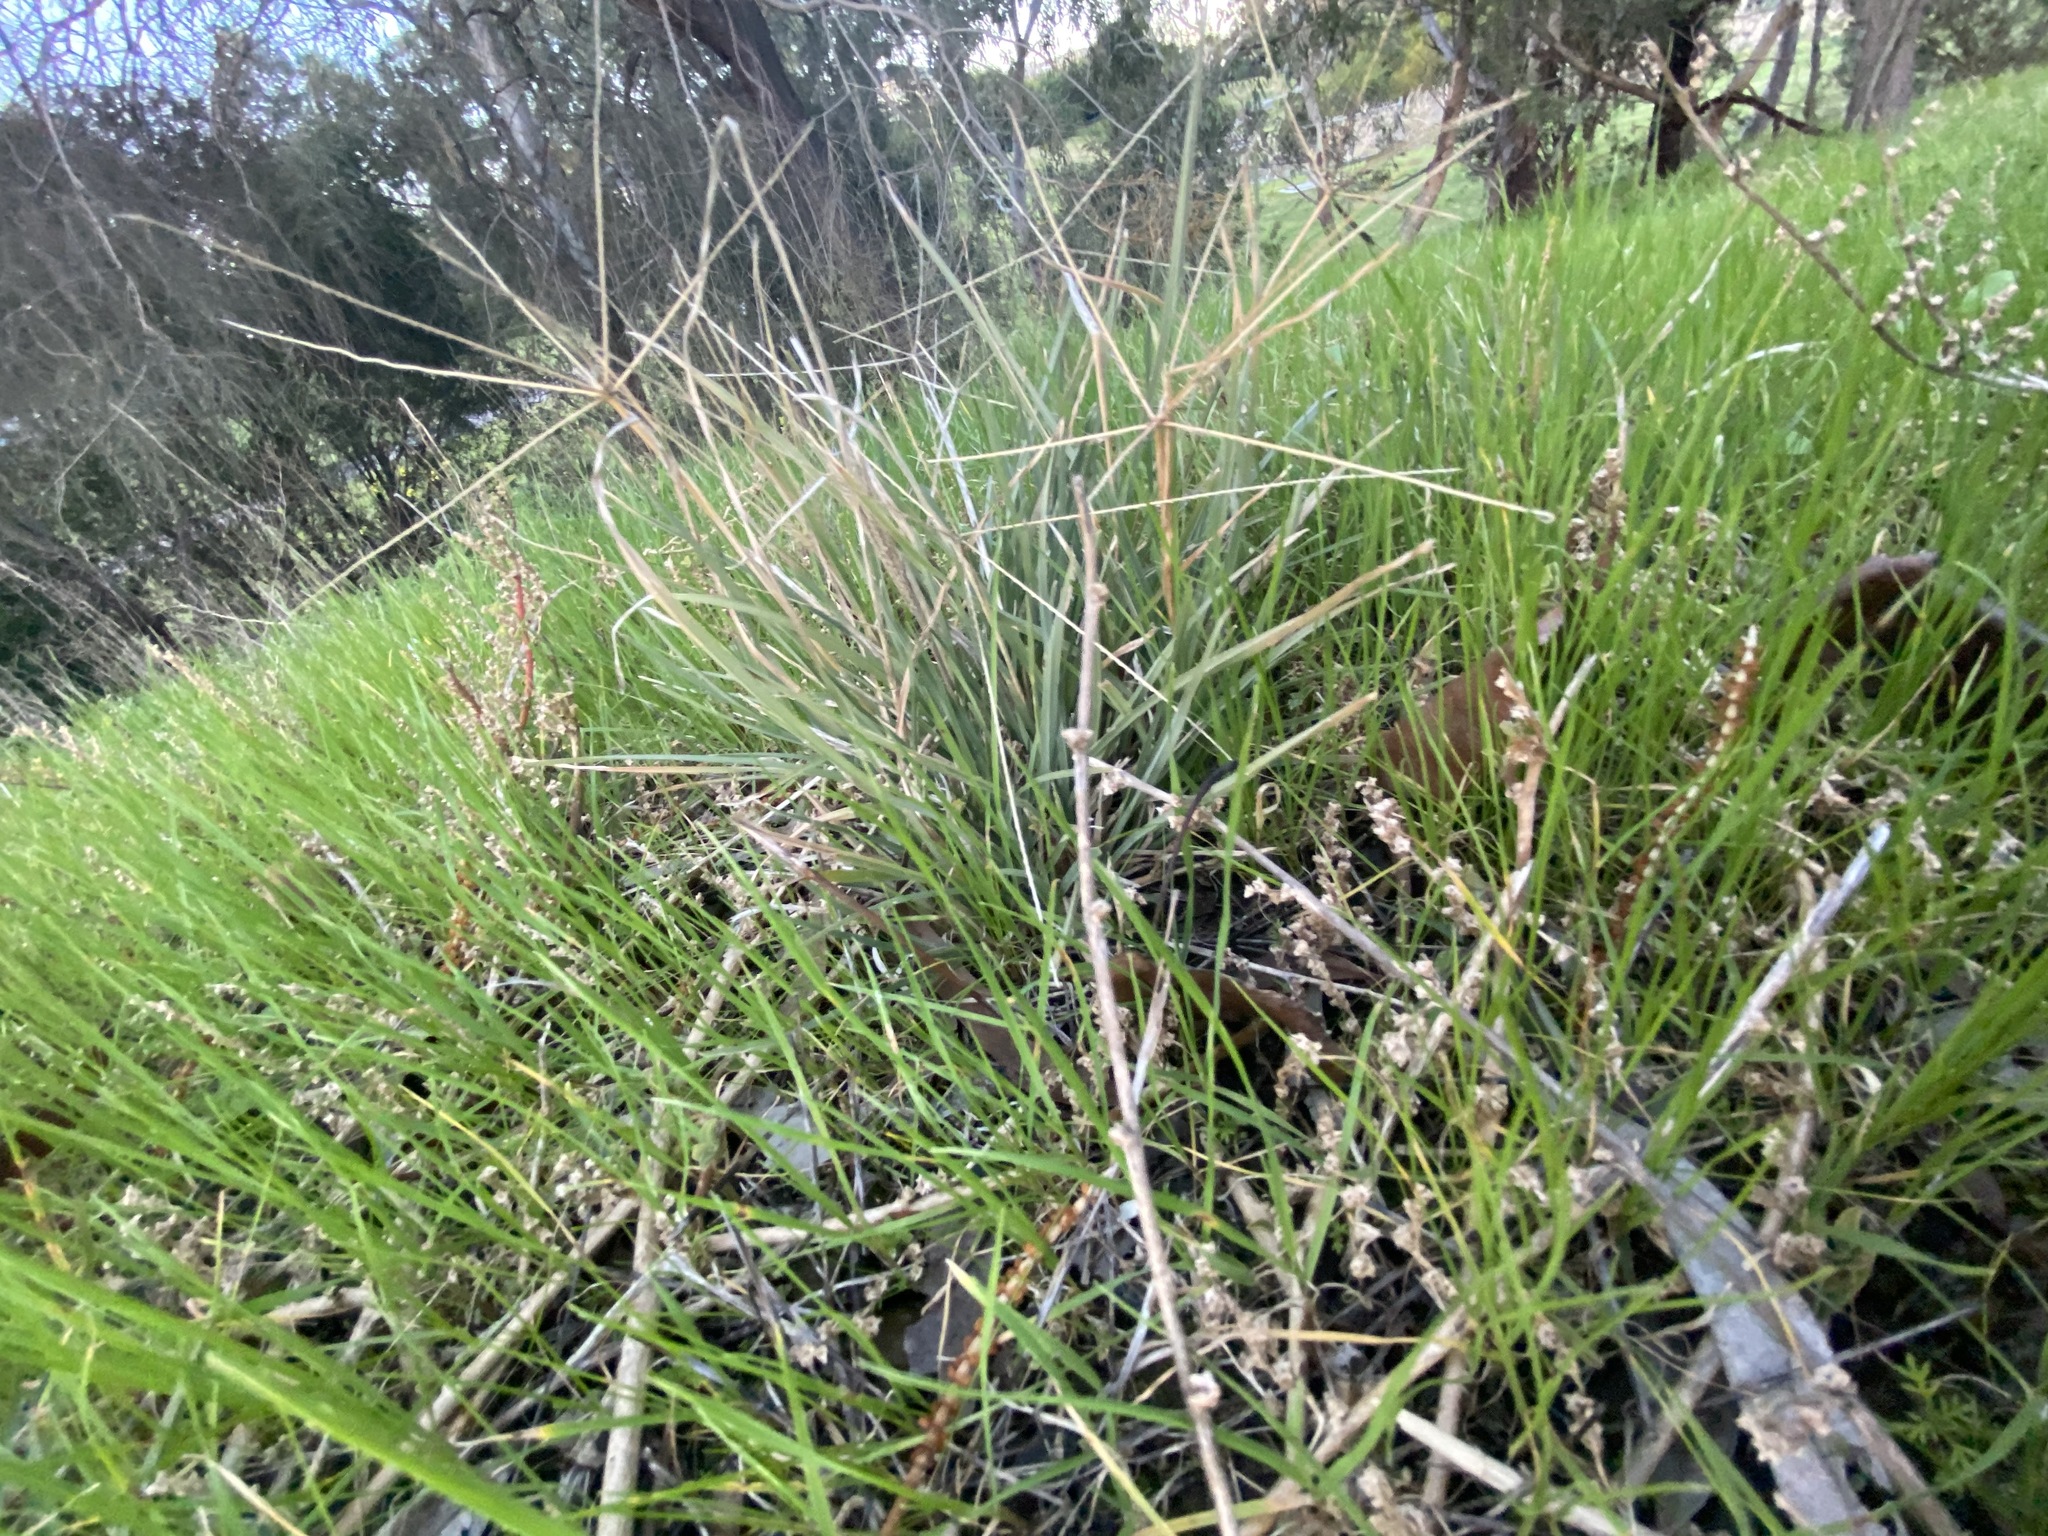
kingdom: Plantae
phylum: Tracheophyta
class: Liliopsida
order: Poales
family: Poaceae
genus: Chloris
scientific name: Chloris truncata
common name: Windmill-grass
